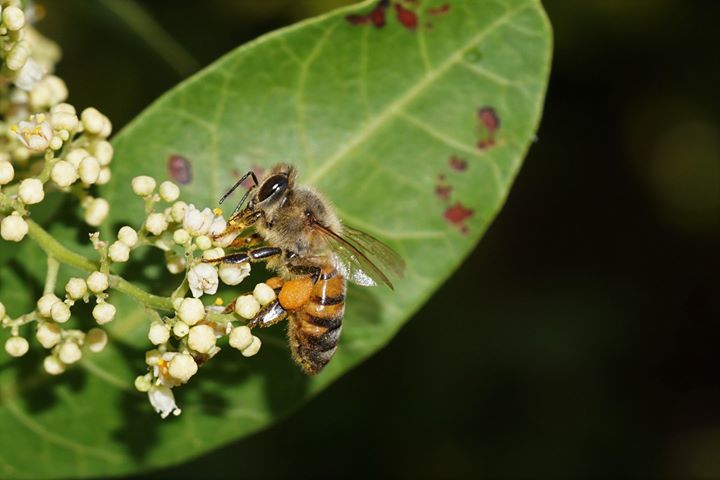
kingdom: Animalia
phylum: Arthropoda
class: Insecta
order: Hymenoptera
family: Apidae
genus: Apis
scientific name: Apis mellifera
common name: Honey bee
